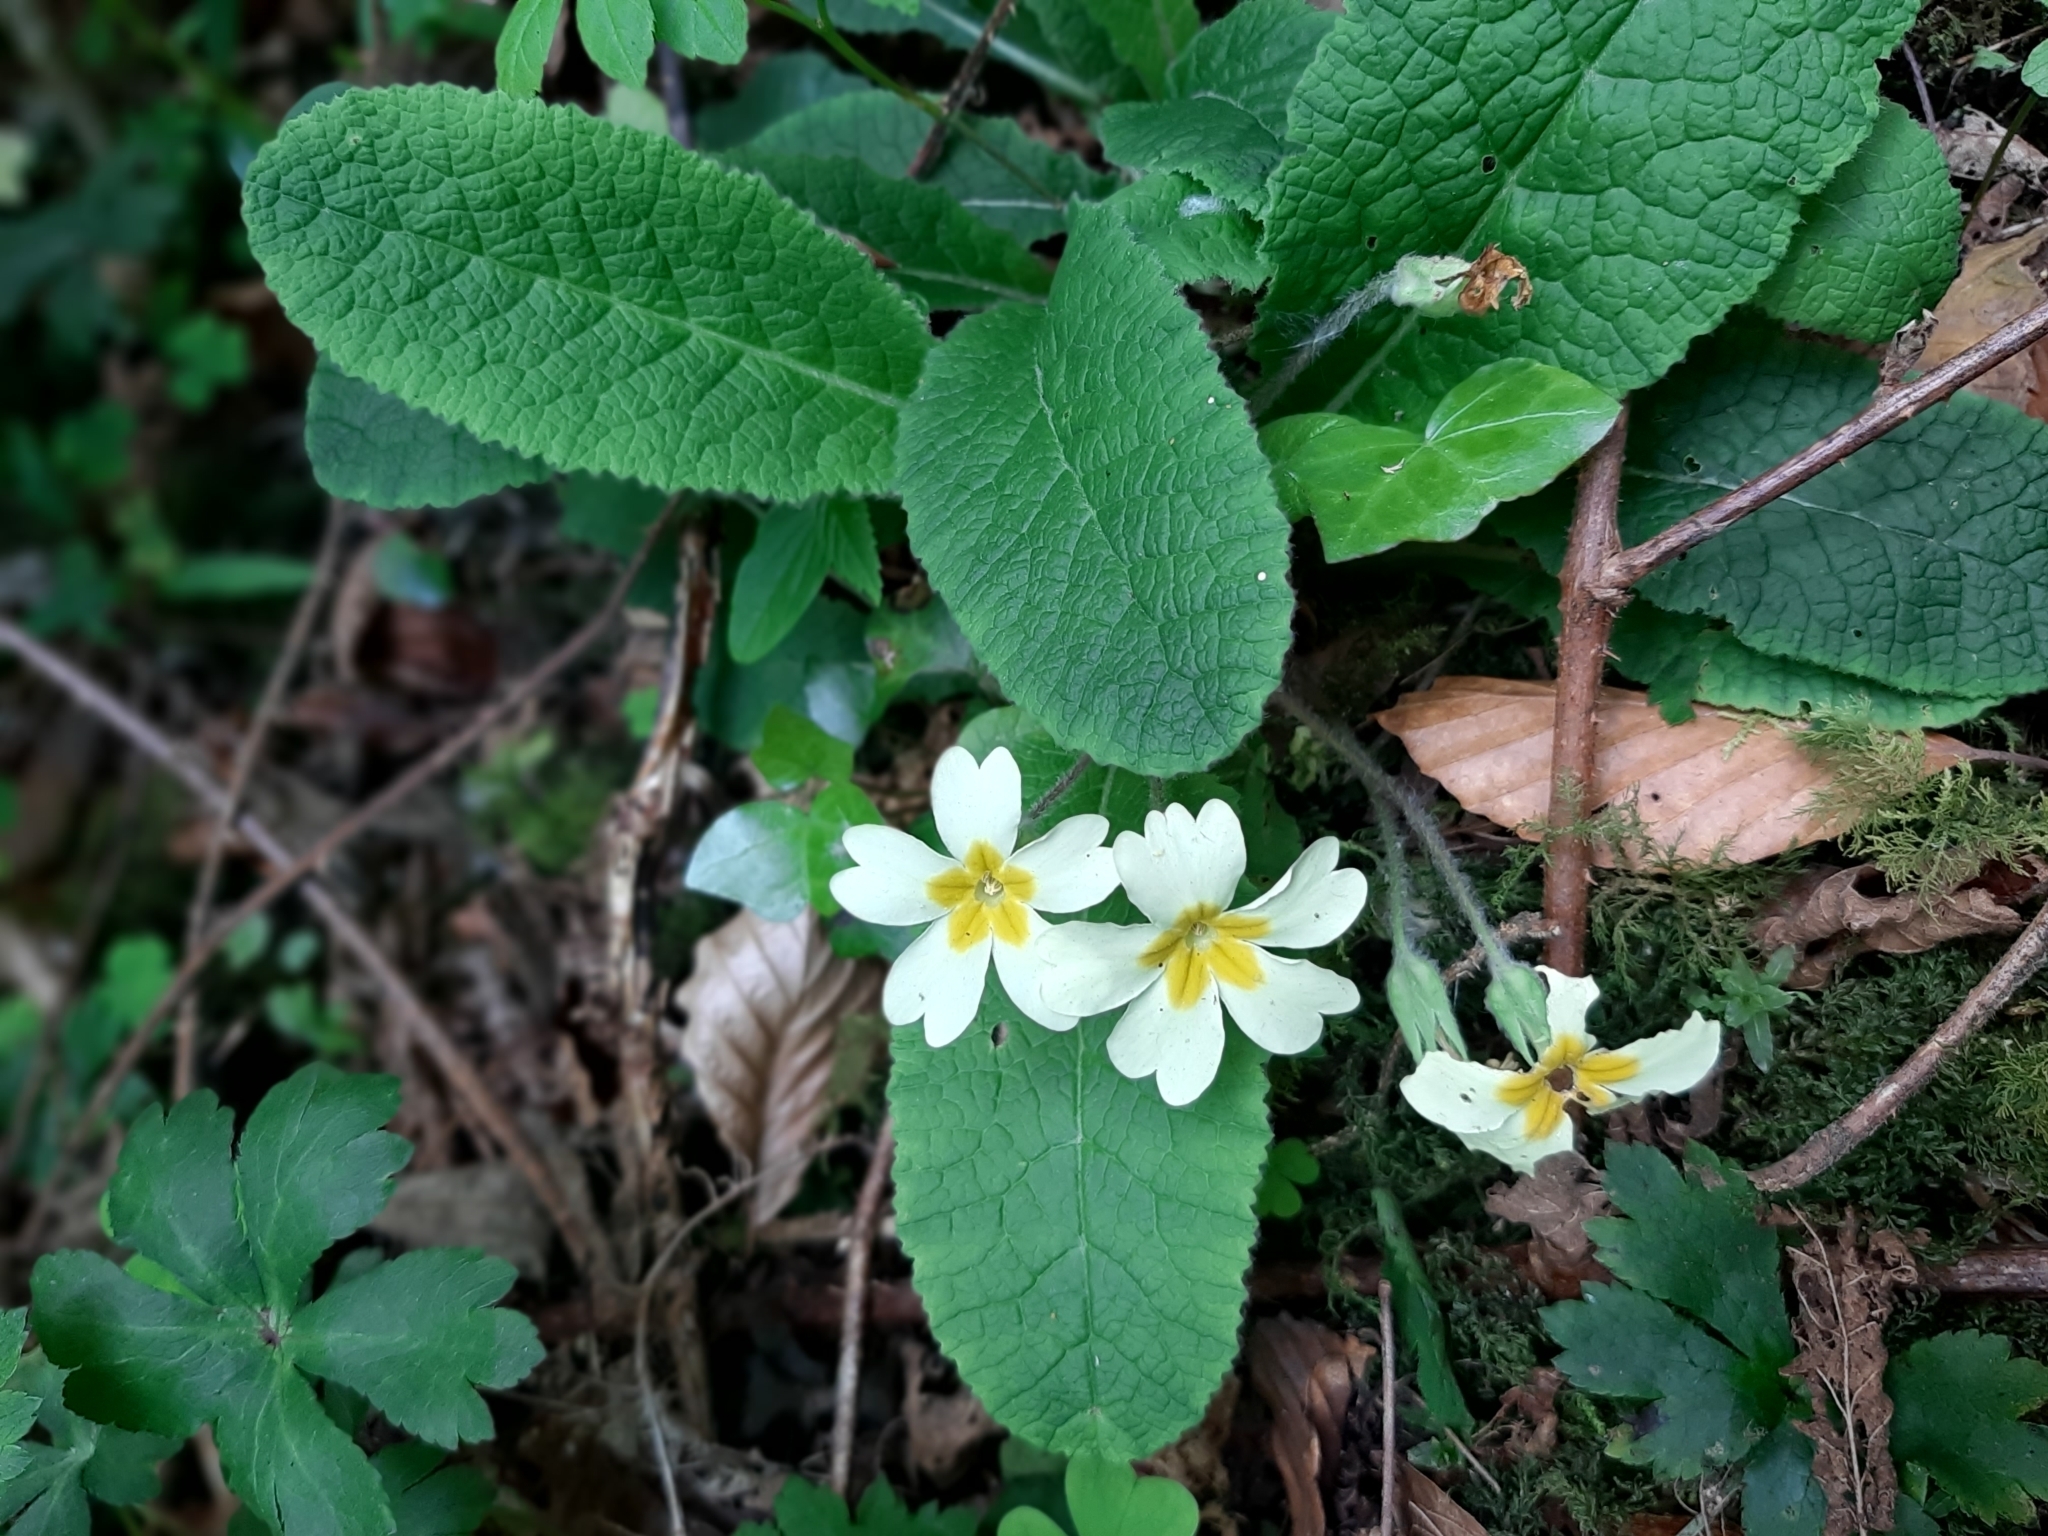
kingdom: Plantae
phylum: Tracheophyta
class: Magnoliopsida
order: Ericales
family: Primulaceae
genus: Primula
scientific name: Primula vulgaris
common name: Primrose
